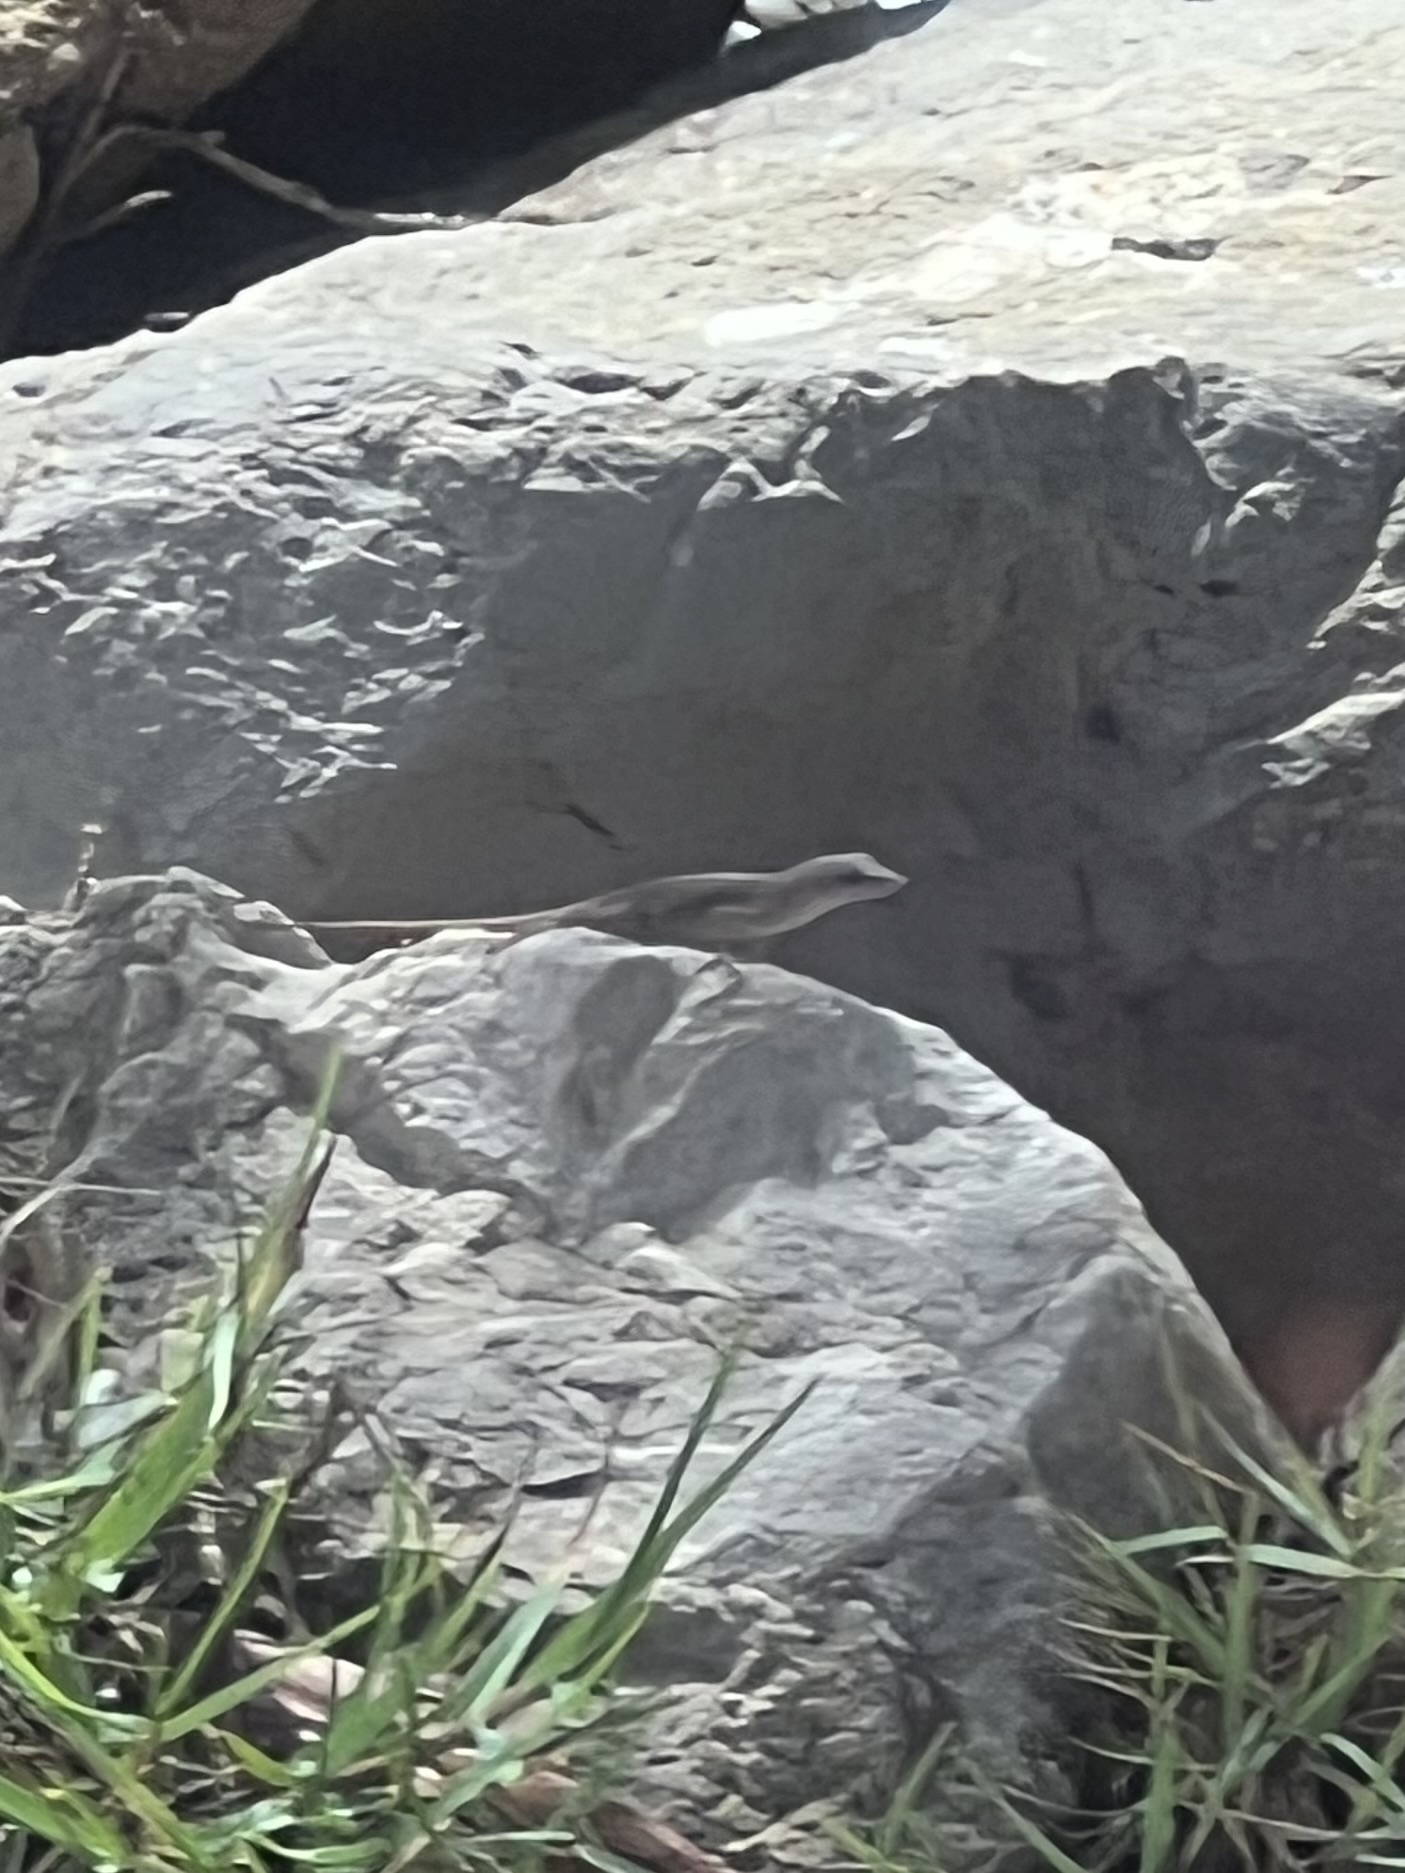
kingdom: Animalia
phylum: Chordata
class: Squamata
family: Dactyloidae
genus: Anolis
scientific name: Anolis sagrei
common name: Brown anole
